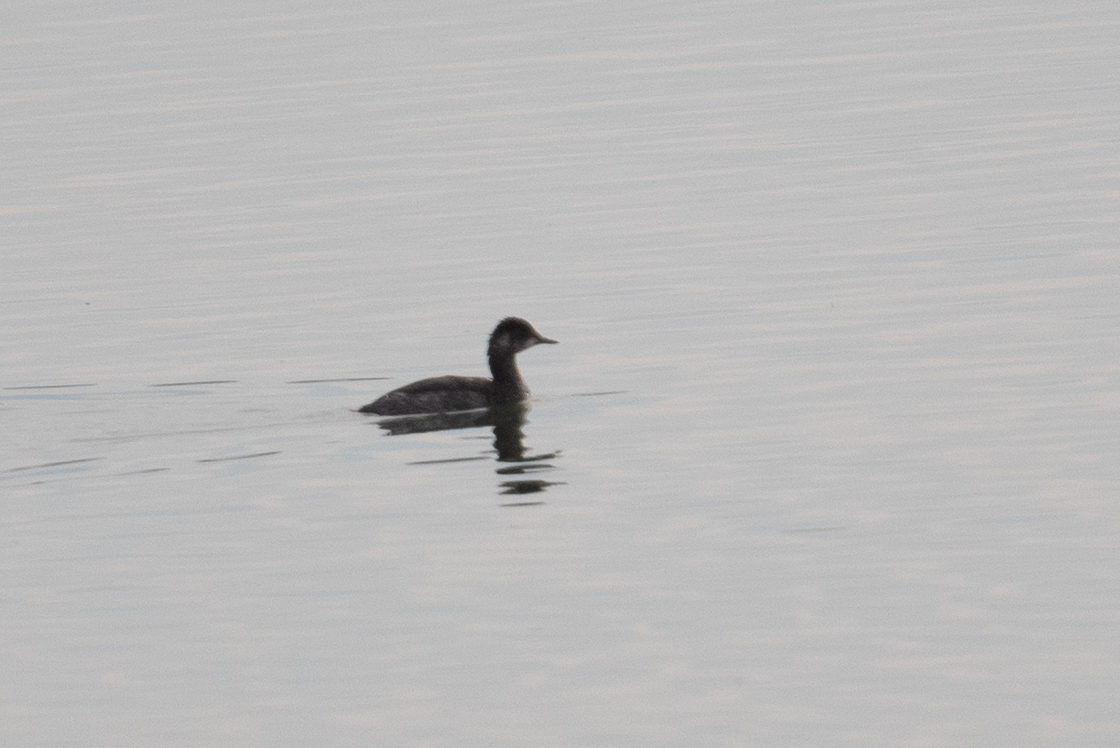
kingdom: Animalia
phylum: Chordata
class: Aves
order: Podicipediformes
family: Podicipedidae
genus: Podiceps
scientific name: Podiceps nigricollis
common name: Black-necked grebe
